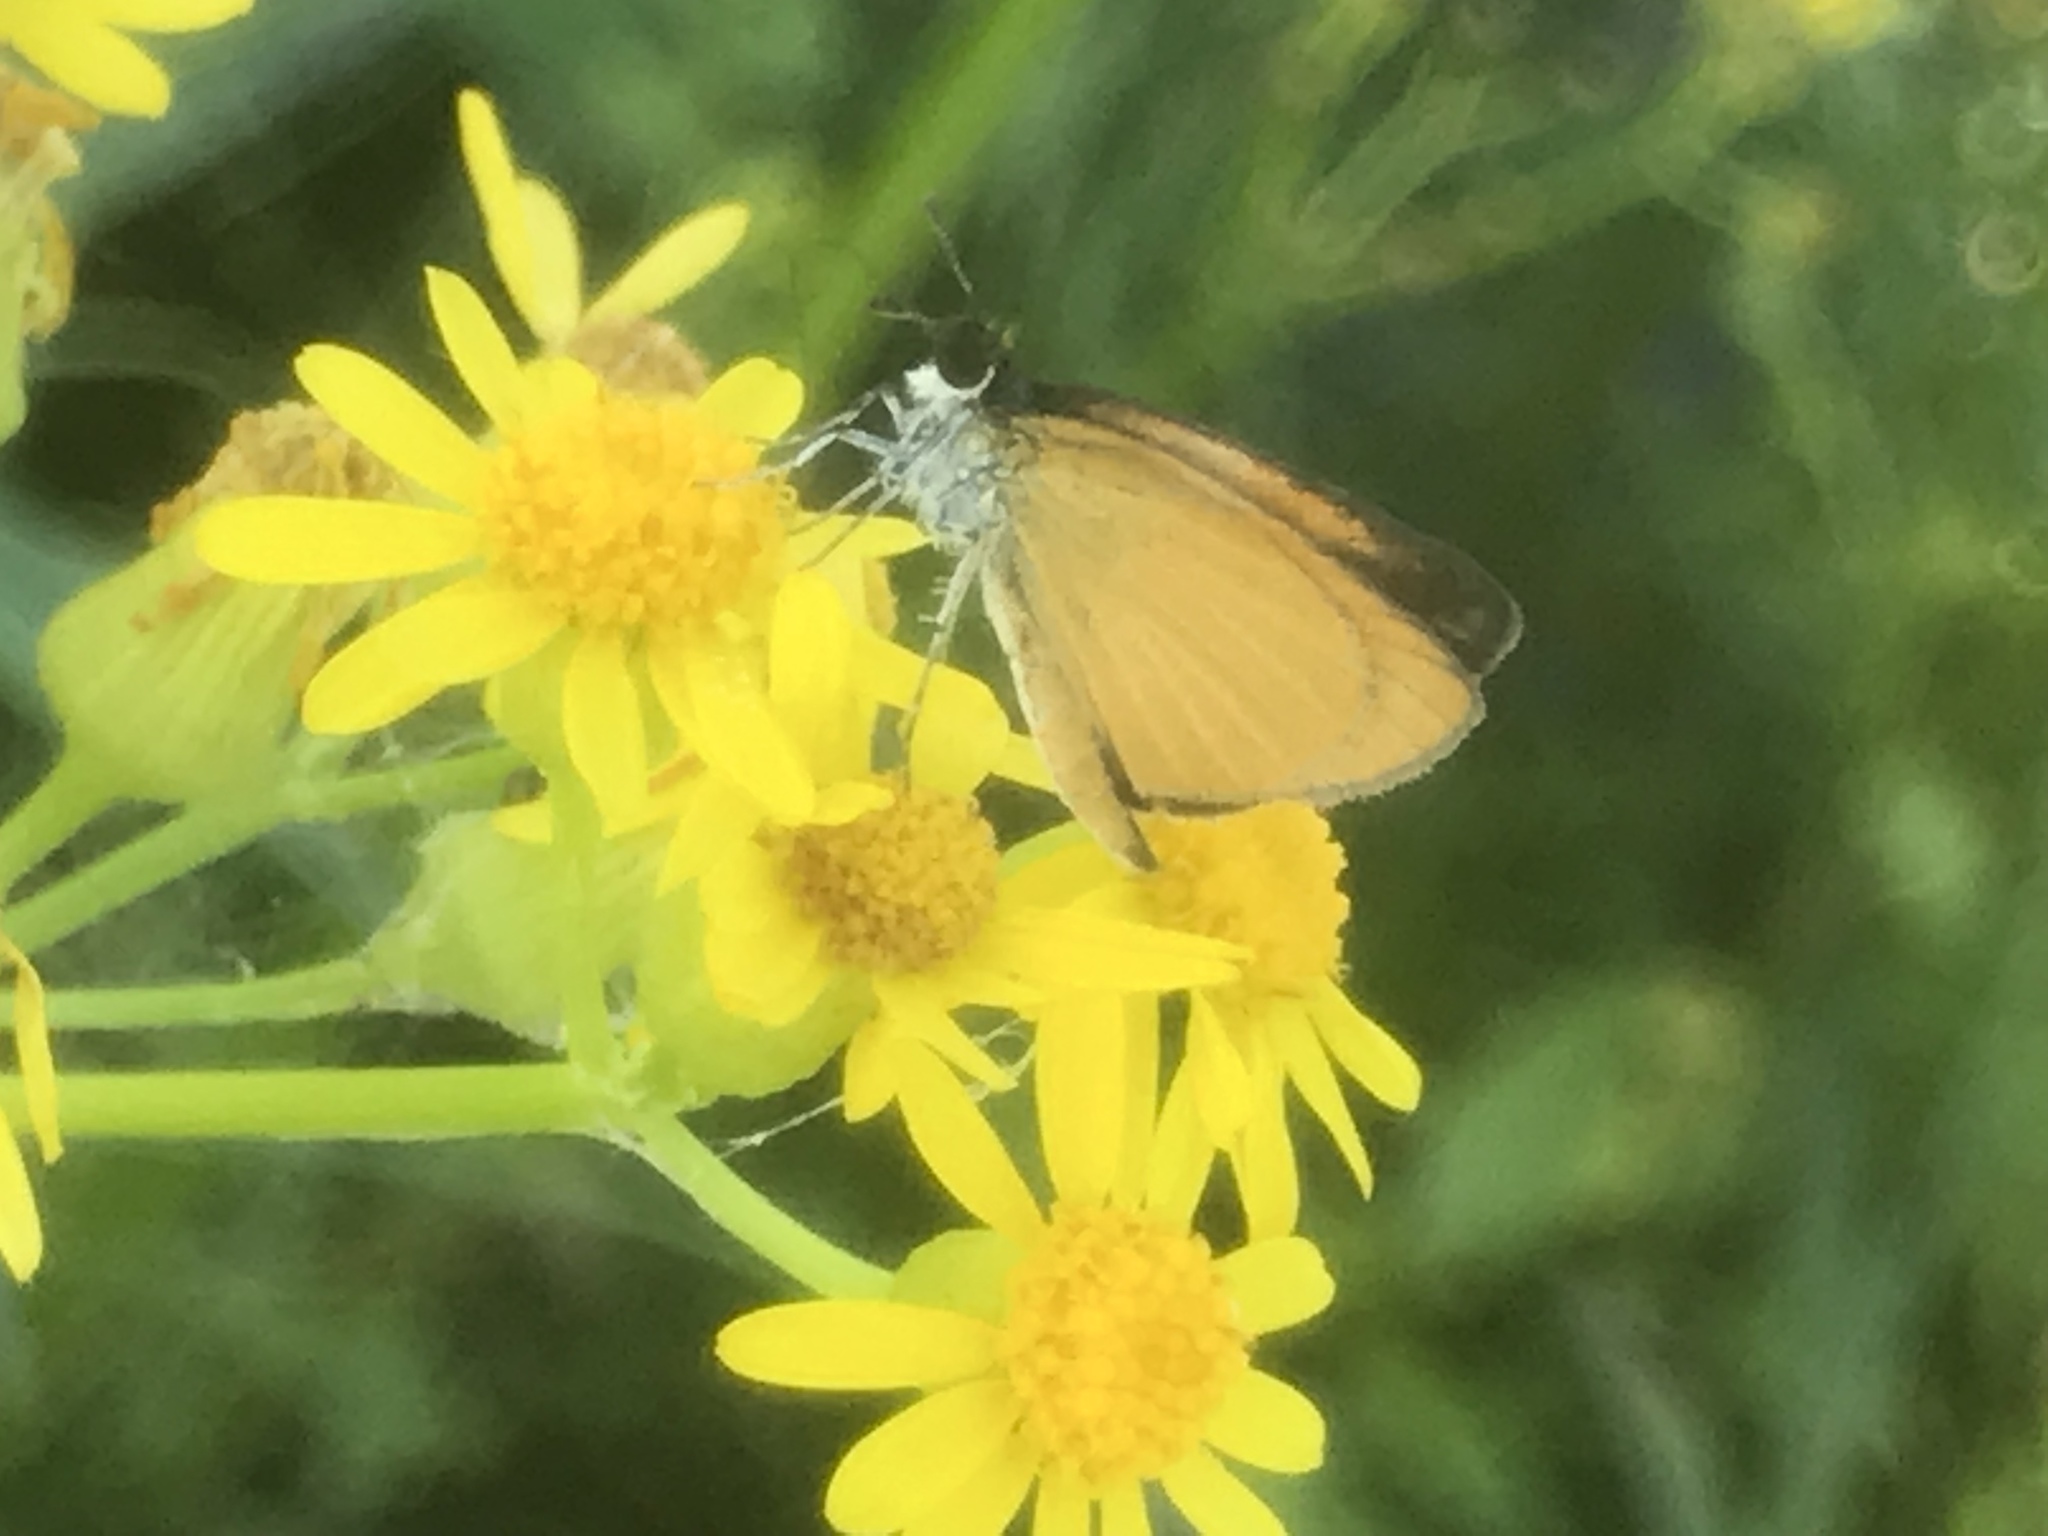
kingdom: Animalia
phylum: Arthropoda
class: Insecta
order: Lepidoptera
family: Hesperiidae
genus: Ancyloxypha
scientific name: Ancyloxypha numitor
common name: Least skipper
